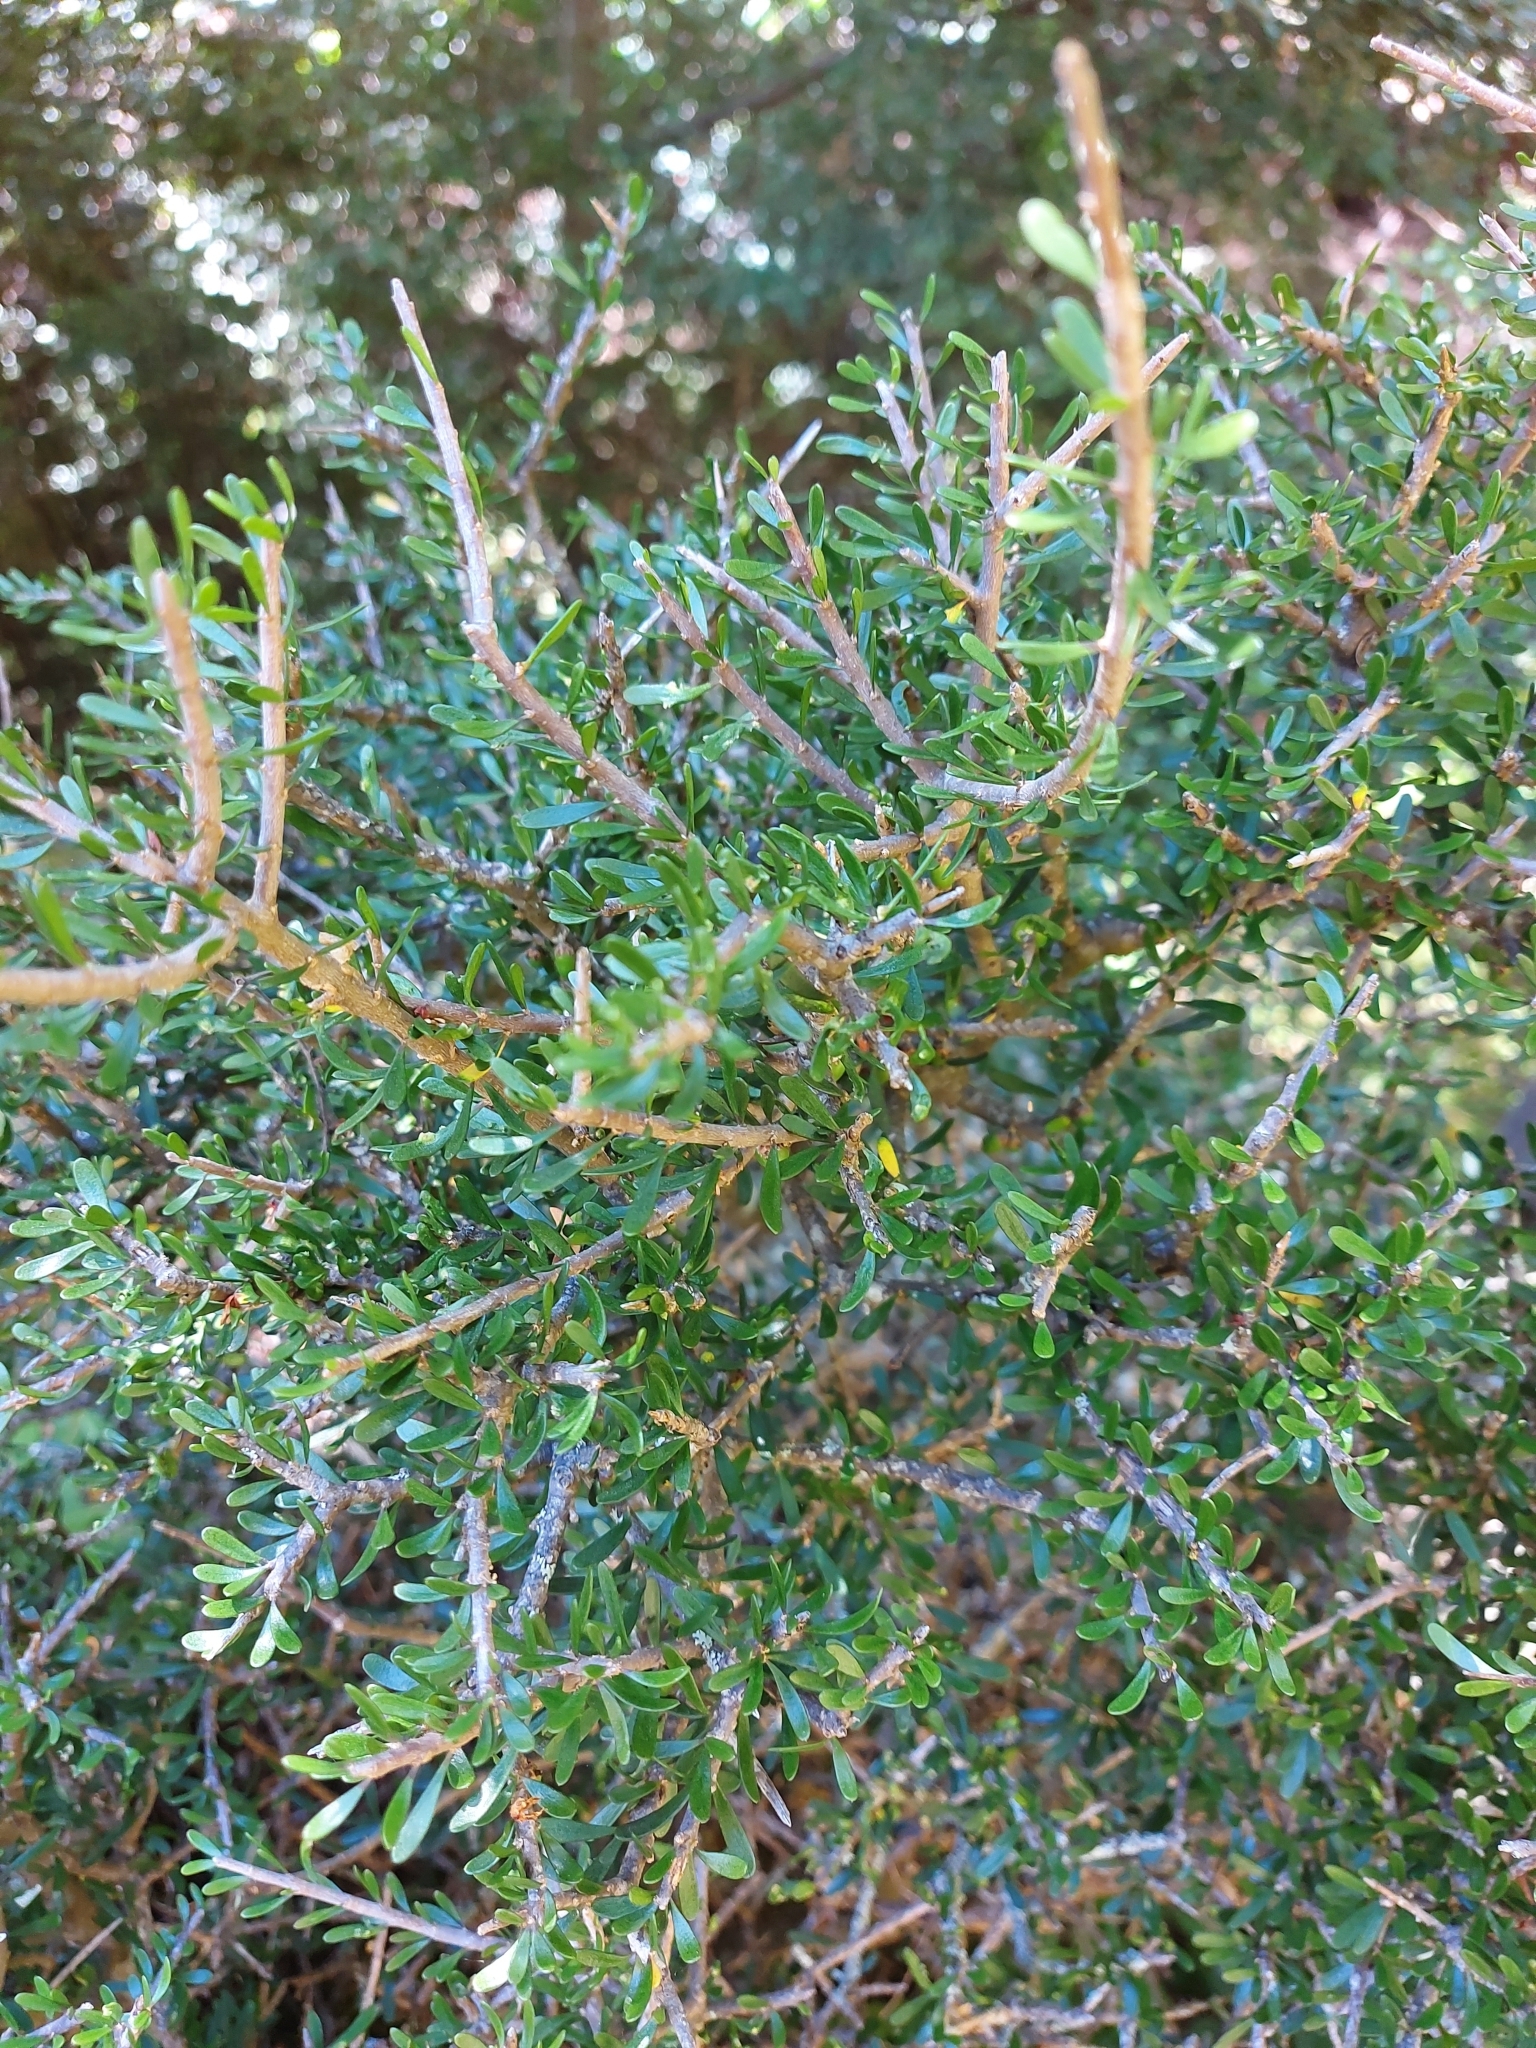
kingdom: Plantae
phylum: Tracheophyta
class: Magnoliopsida
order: Malpighiales
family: Violaceae
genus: Melicytus
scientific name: Melicytus alpinus
